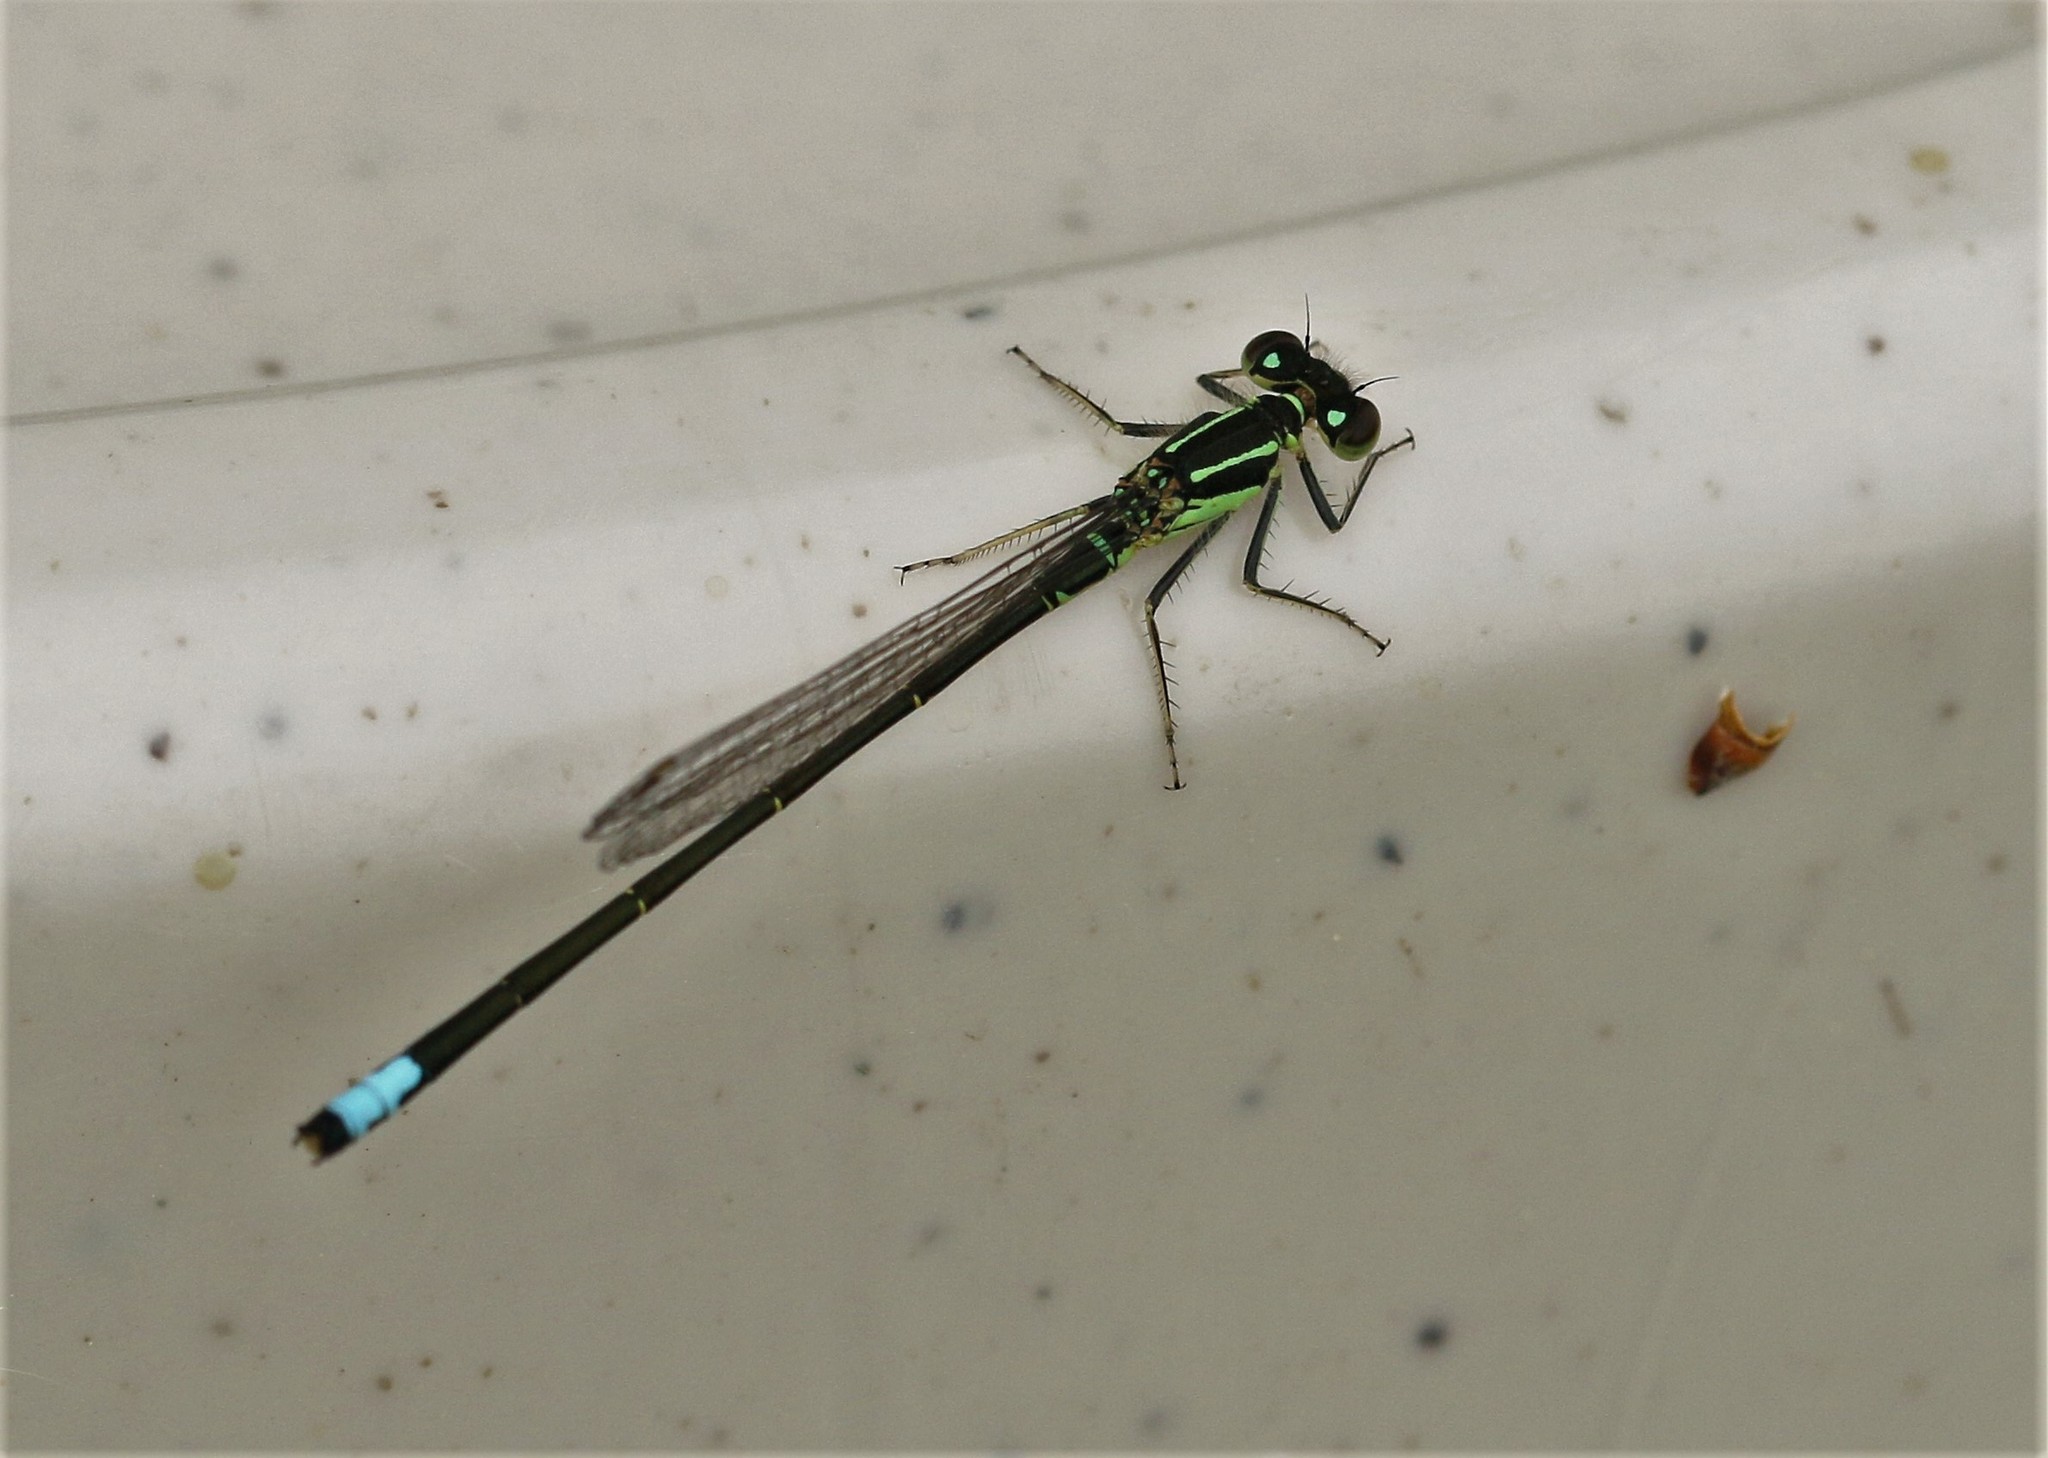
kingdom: Animalia
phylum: Arthropoda
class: Insecta
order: Odonata
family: Coenagrionidae
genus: Ischnura
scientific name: Ischnura verticalis
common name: Eastern forktail
